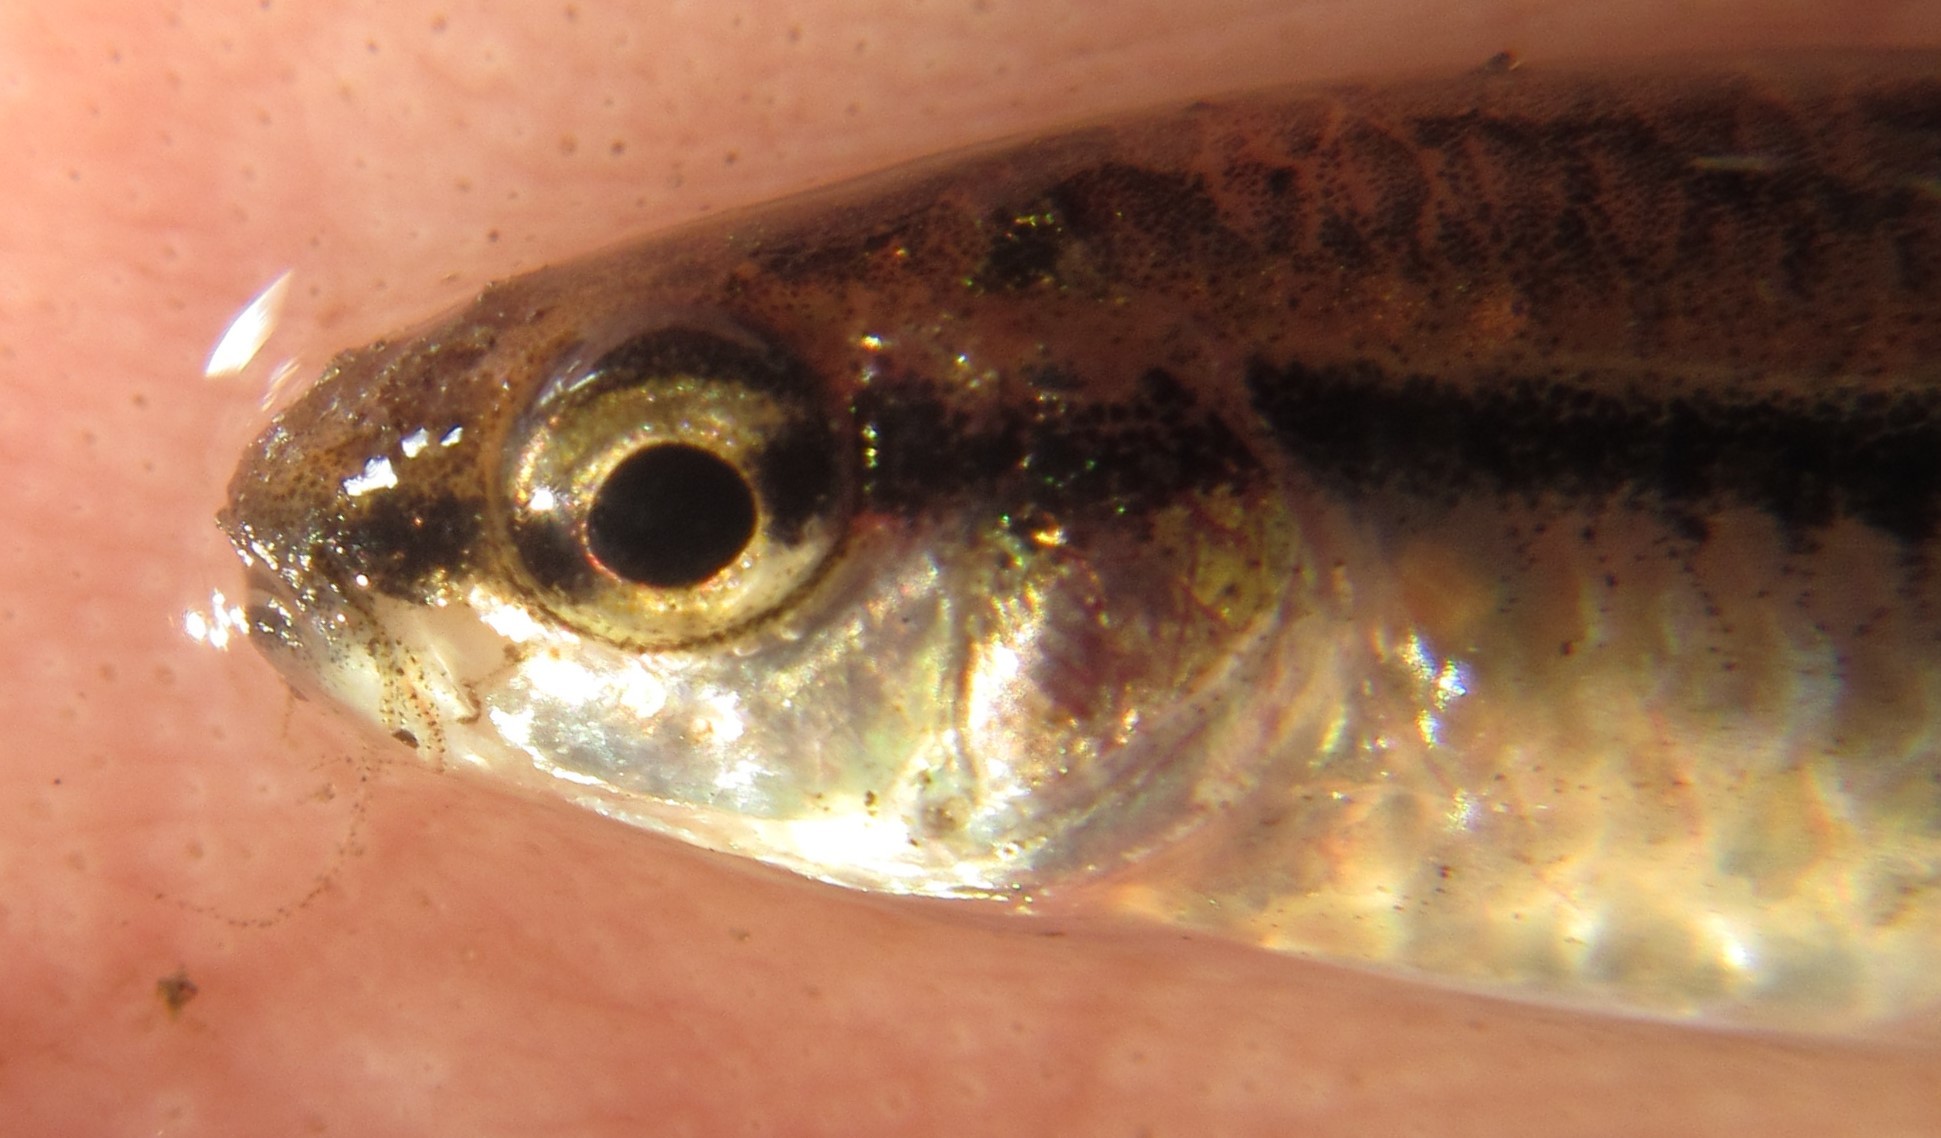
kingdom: Animalia
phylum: Chordata
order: Cypriniformes
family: Cyprinidae
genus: Enteromius
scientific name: Enteromius barnardi
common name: Blackback barb
